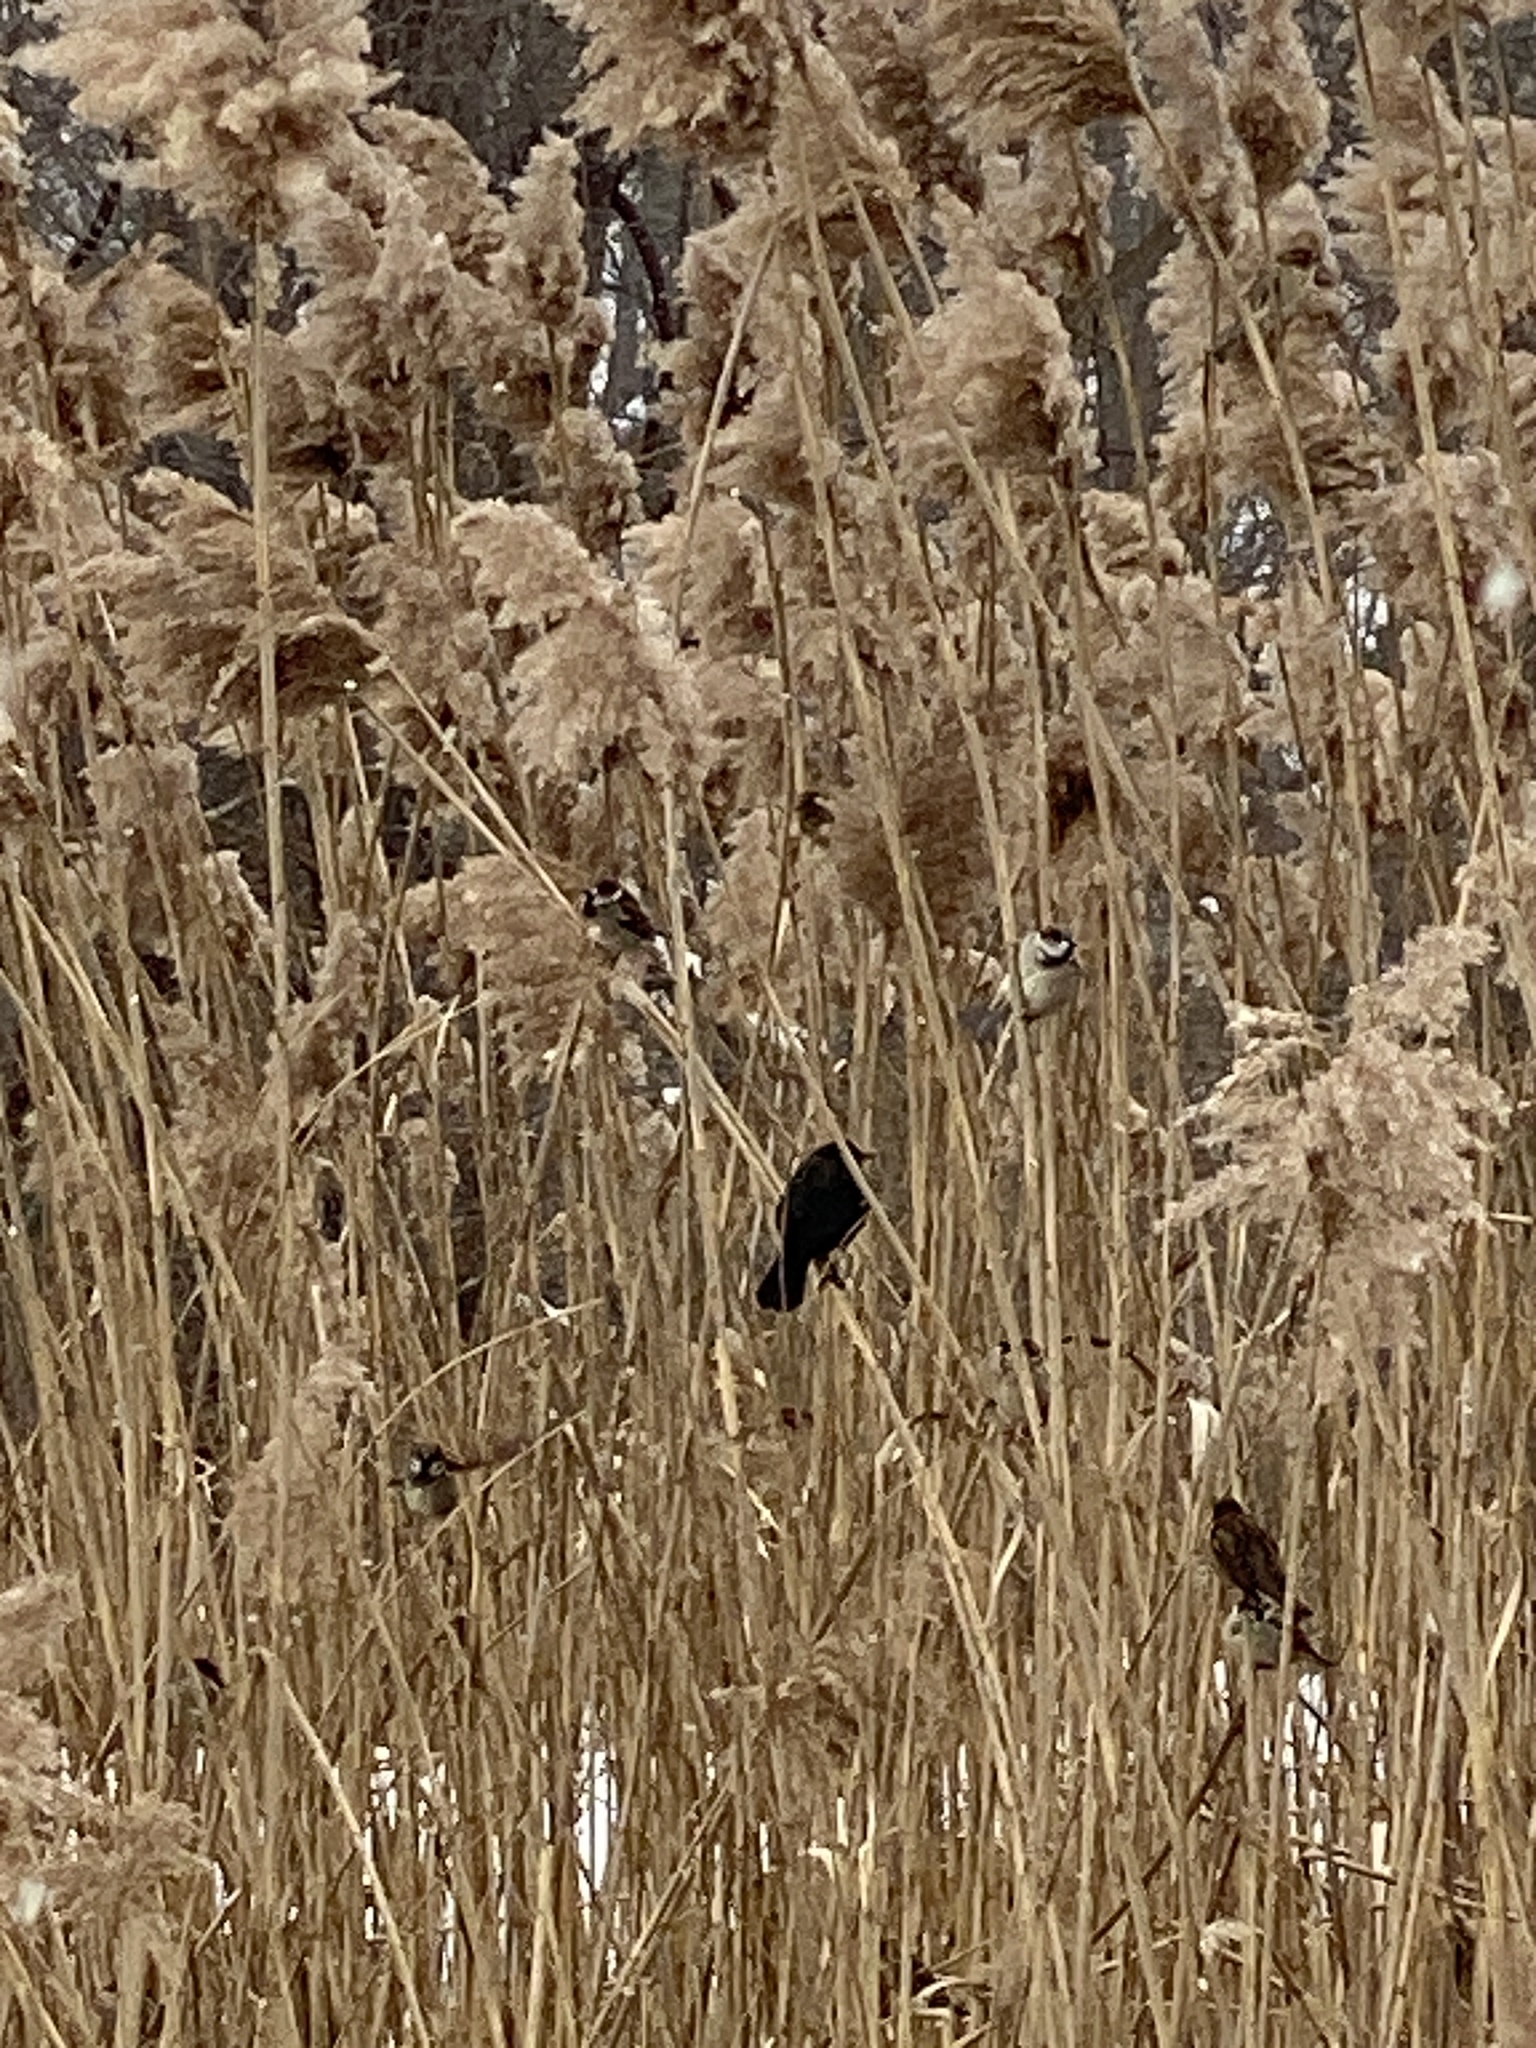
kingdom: Animalia
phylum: Chordata
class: Aves
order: Passeriformes
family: Icteridae
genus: Agelaius
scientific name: Agelaius phoeniceus
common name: Red-winged blackbird
